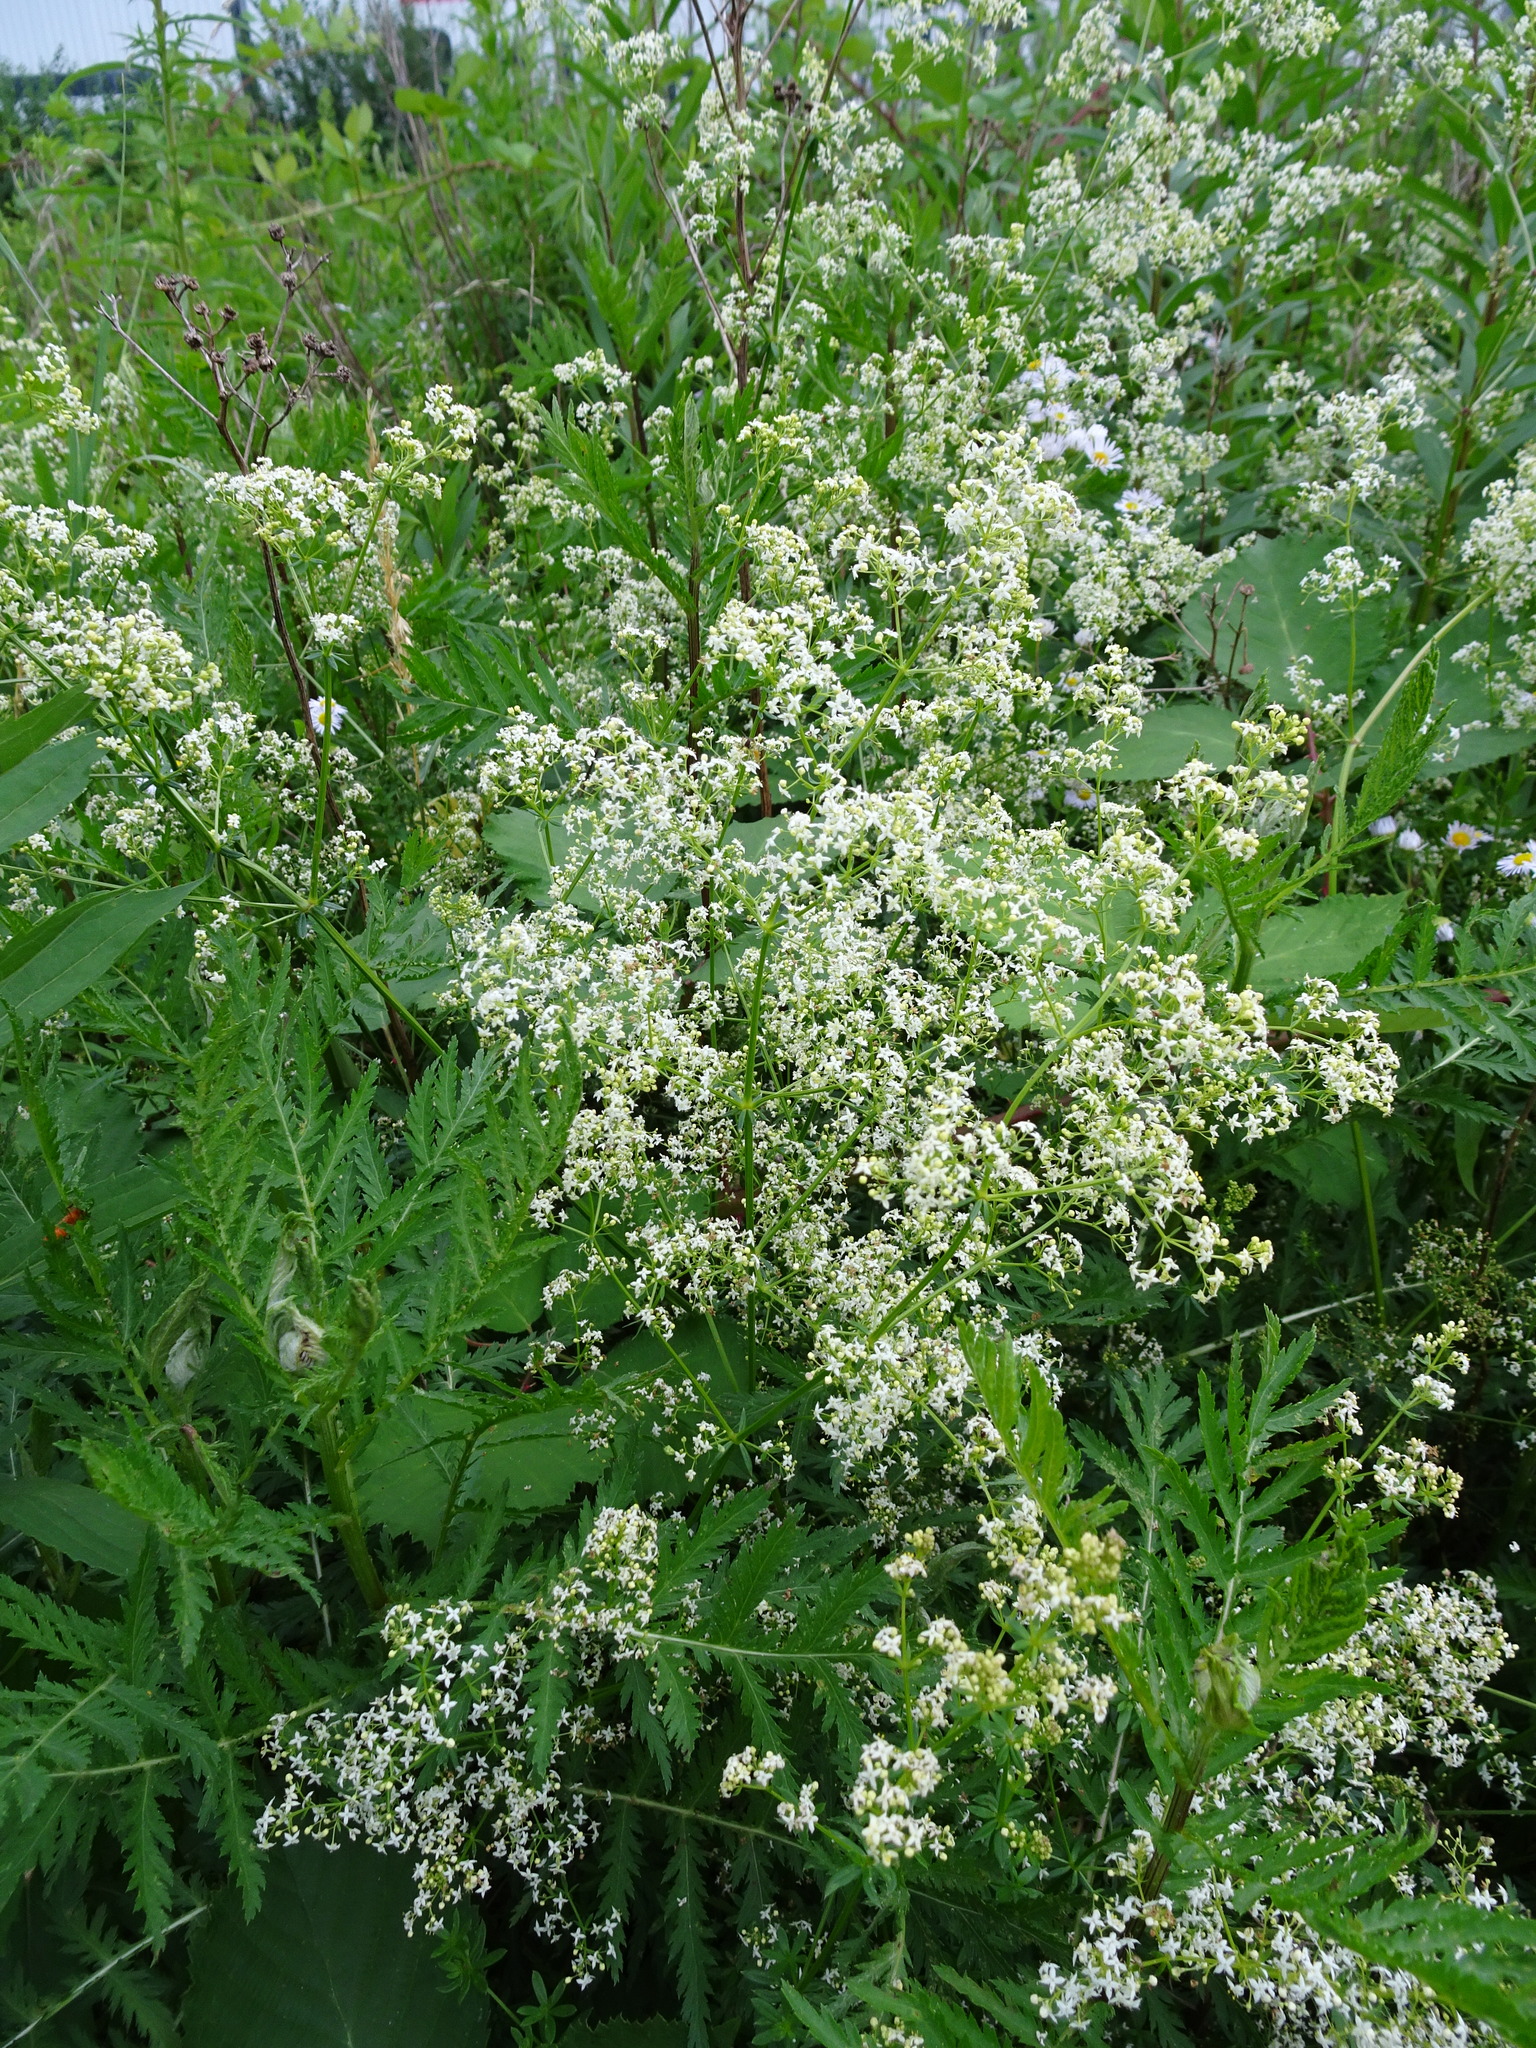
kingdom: Plantae
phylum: Tracheophyta
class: Magnoliopsida
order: Gentianales
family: Rubiaceae
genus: Galium
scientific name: Galium mollugo
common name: Hedge bedstraw
